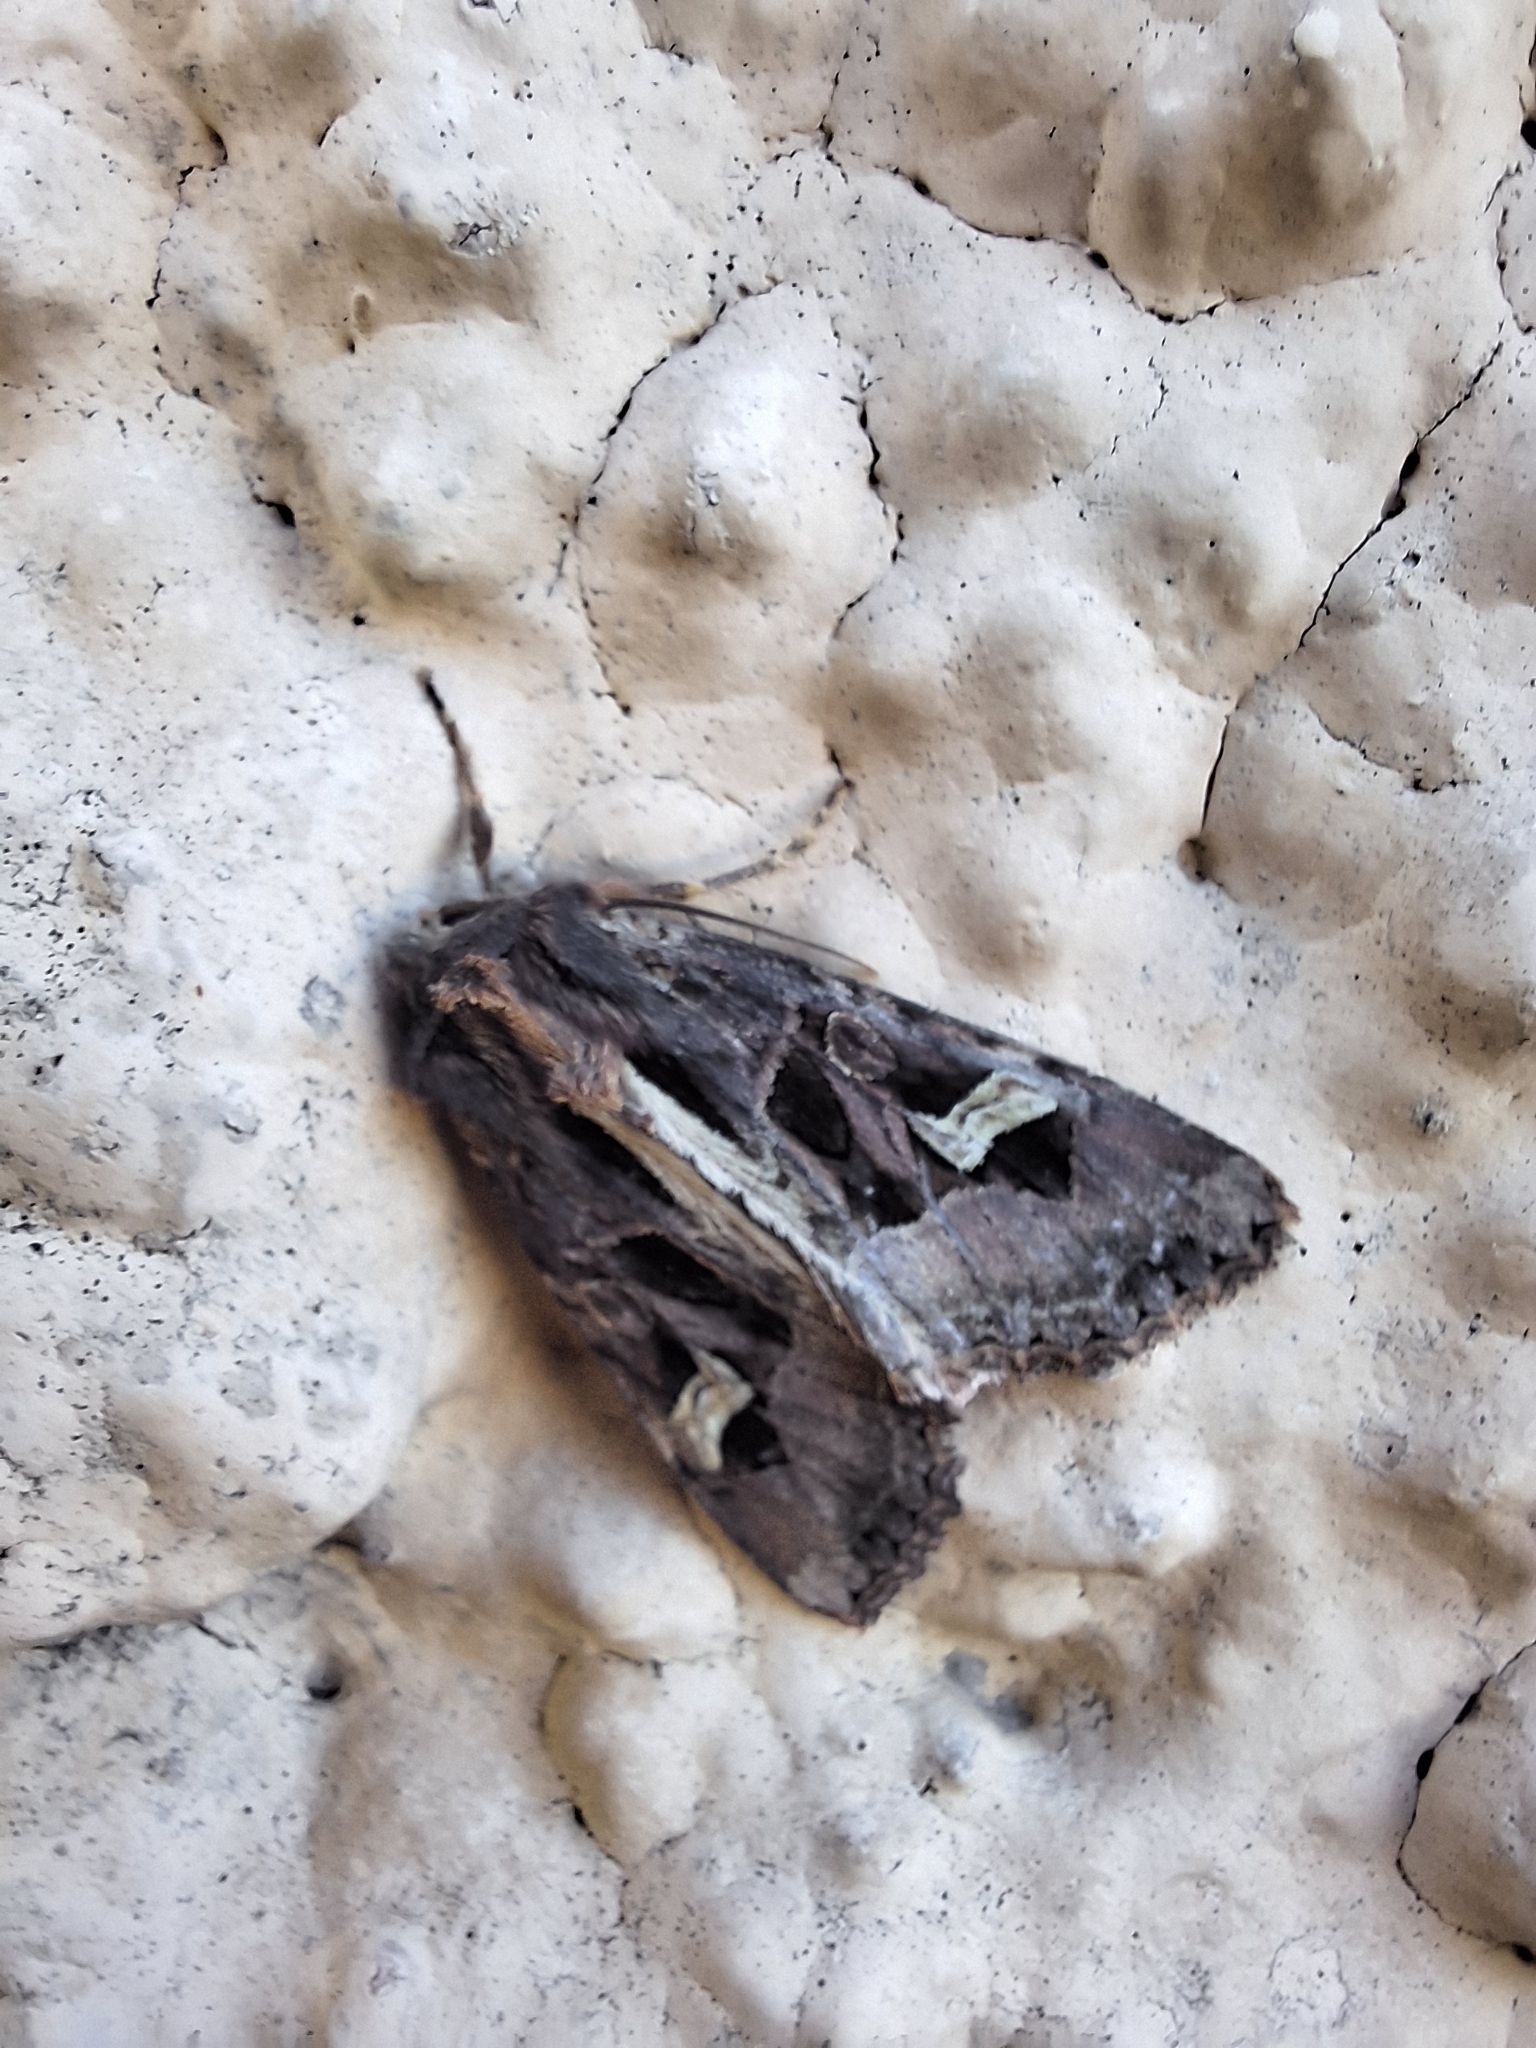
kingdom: Animalia
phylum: Arthropoda
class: Insecta
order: Lepidoptera
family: Noctuidae
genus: Trigonophora
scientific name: Trigonophora flammea
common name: Flame brocade
